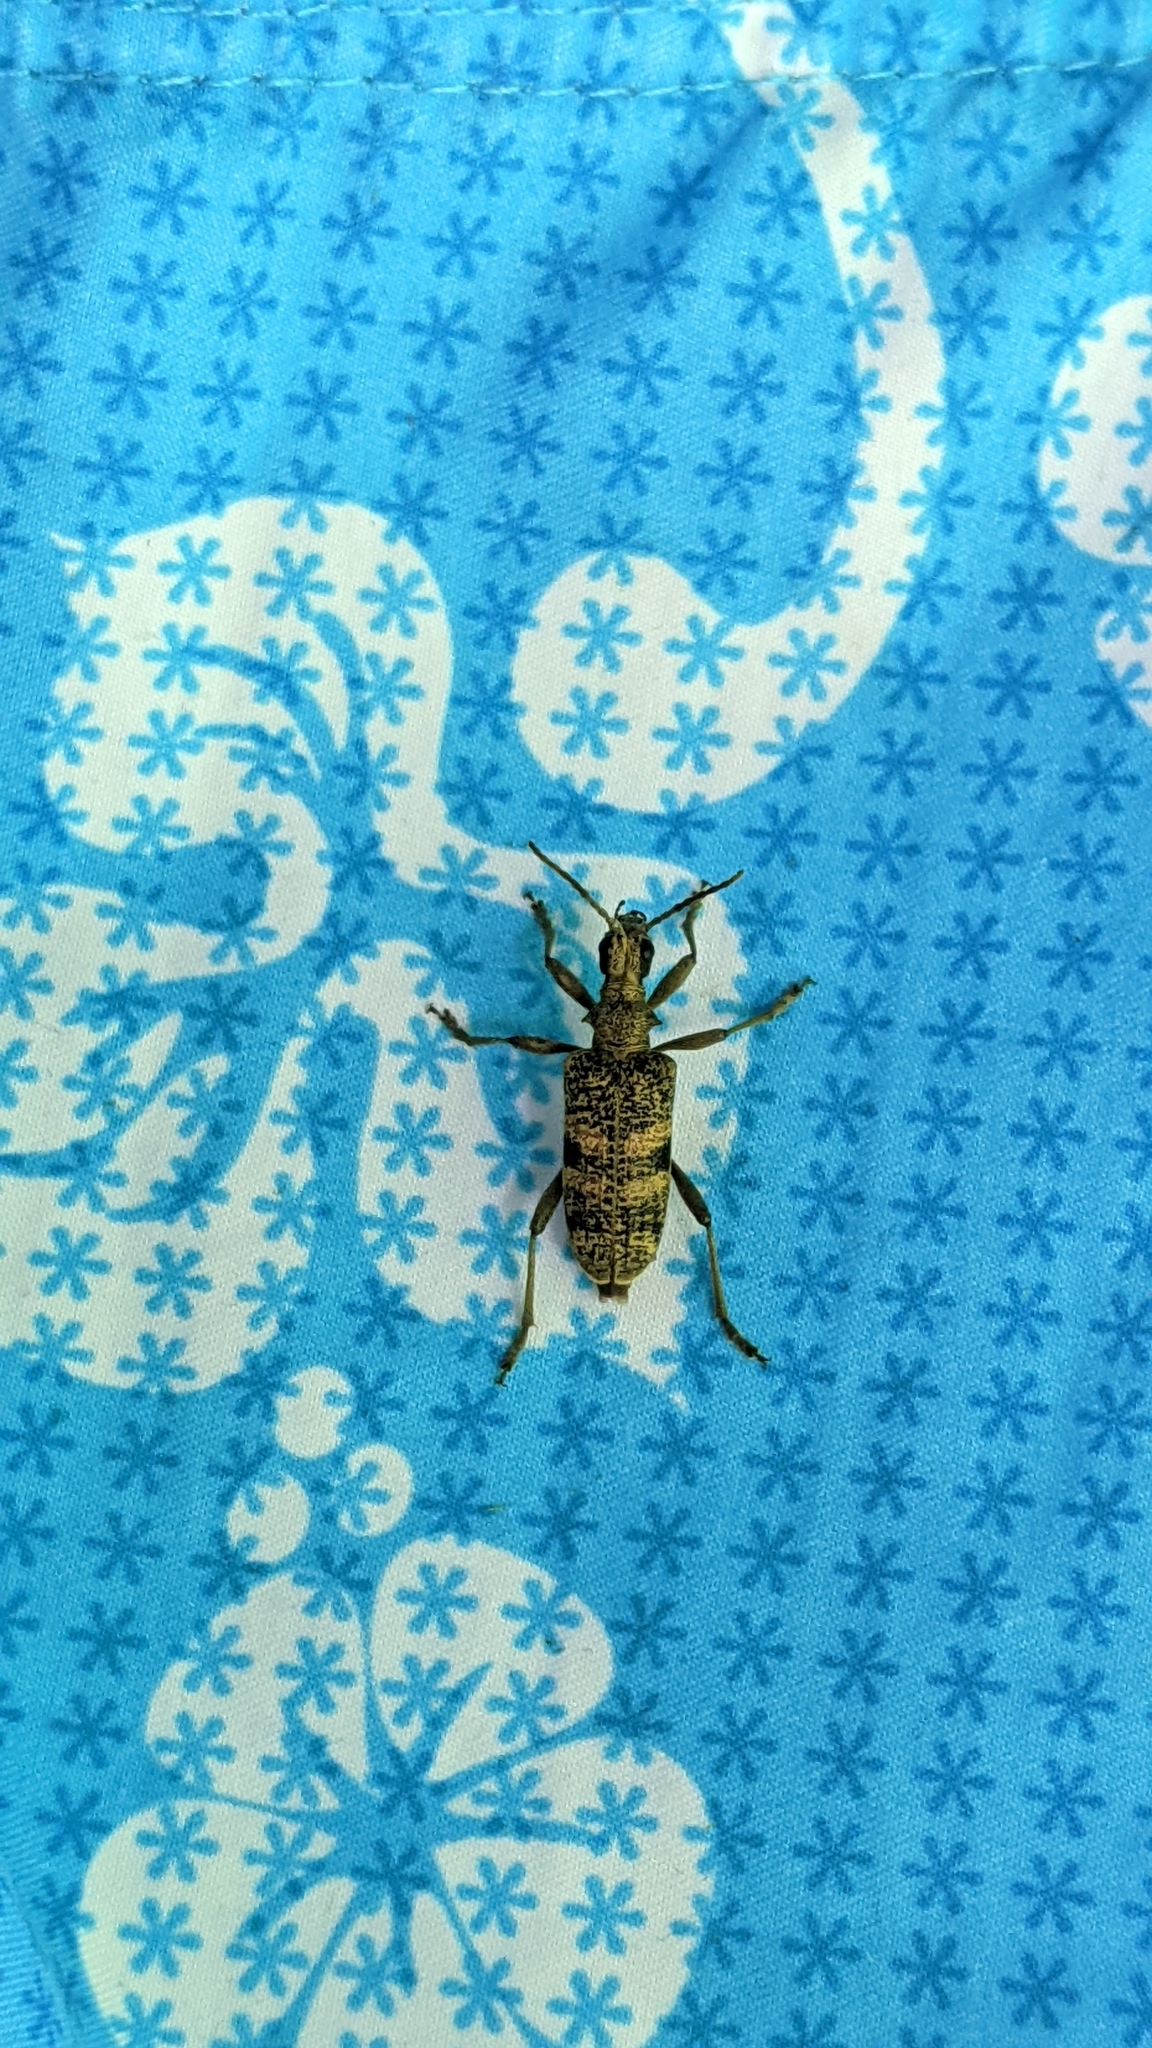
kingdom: Animalia
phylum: Arthropoda
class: Insecta
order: Coleoptera
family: Cerambycidae
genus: Rhagium
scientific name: Rhagium mordax
